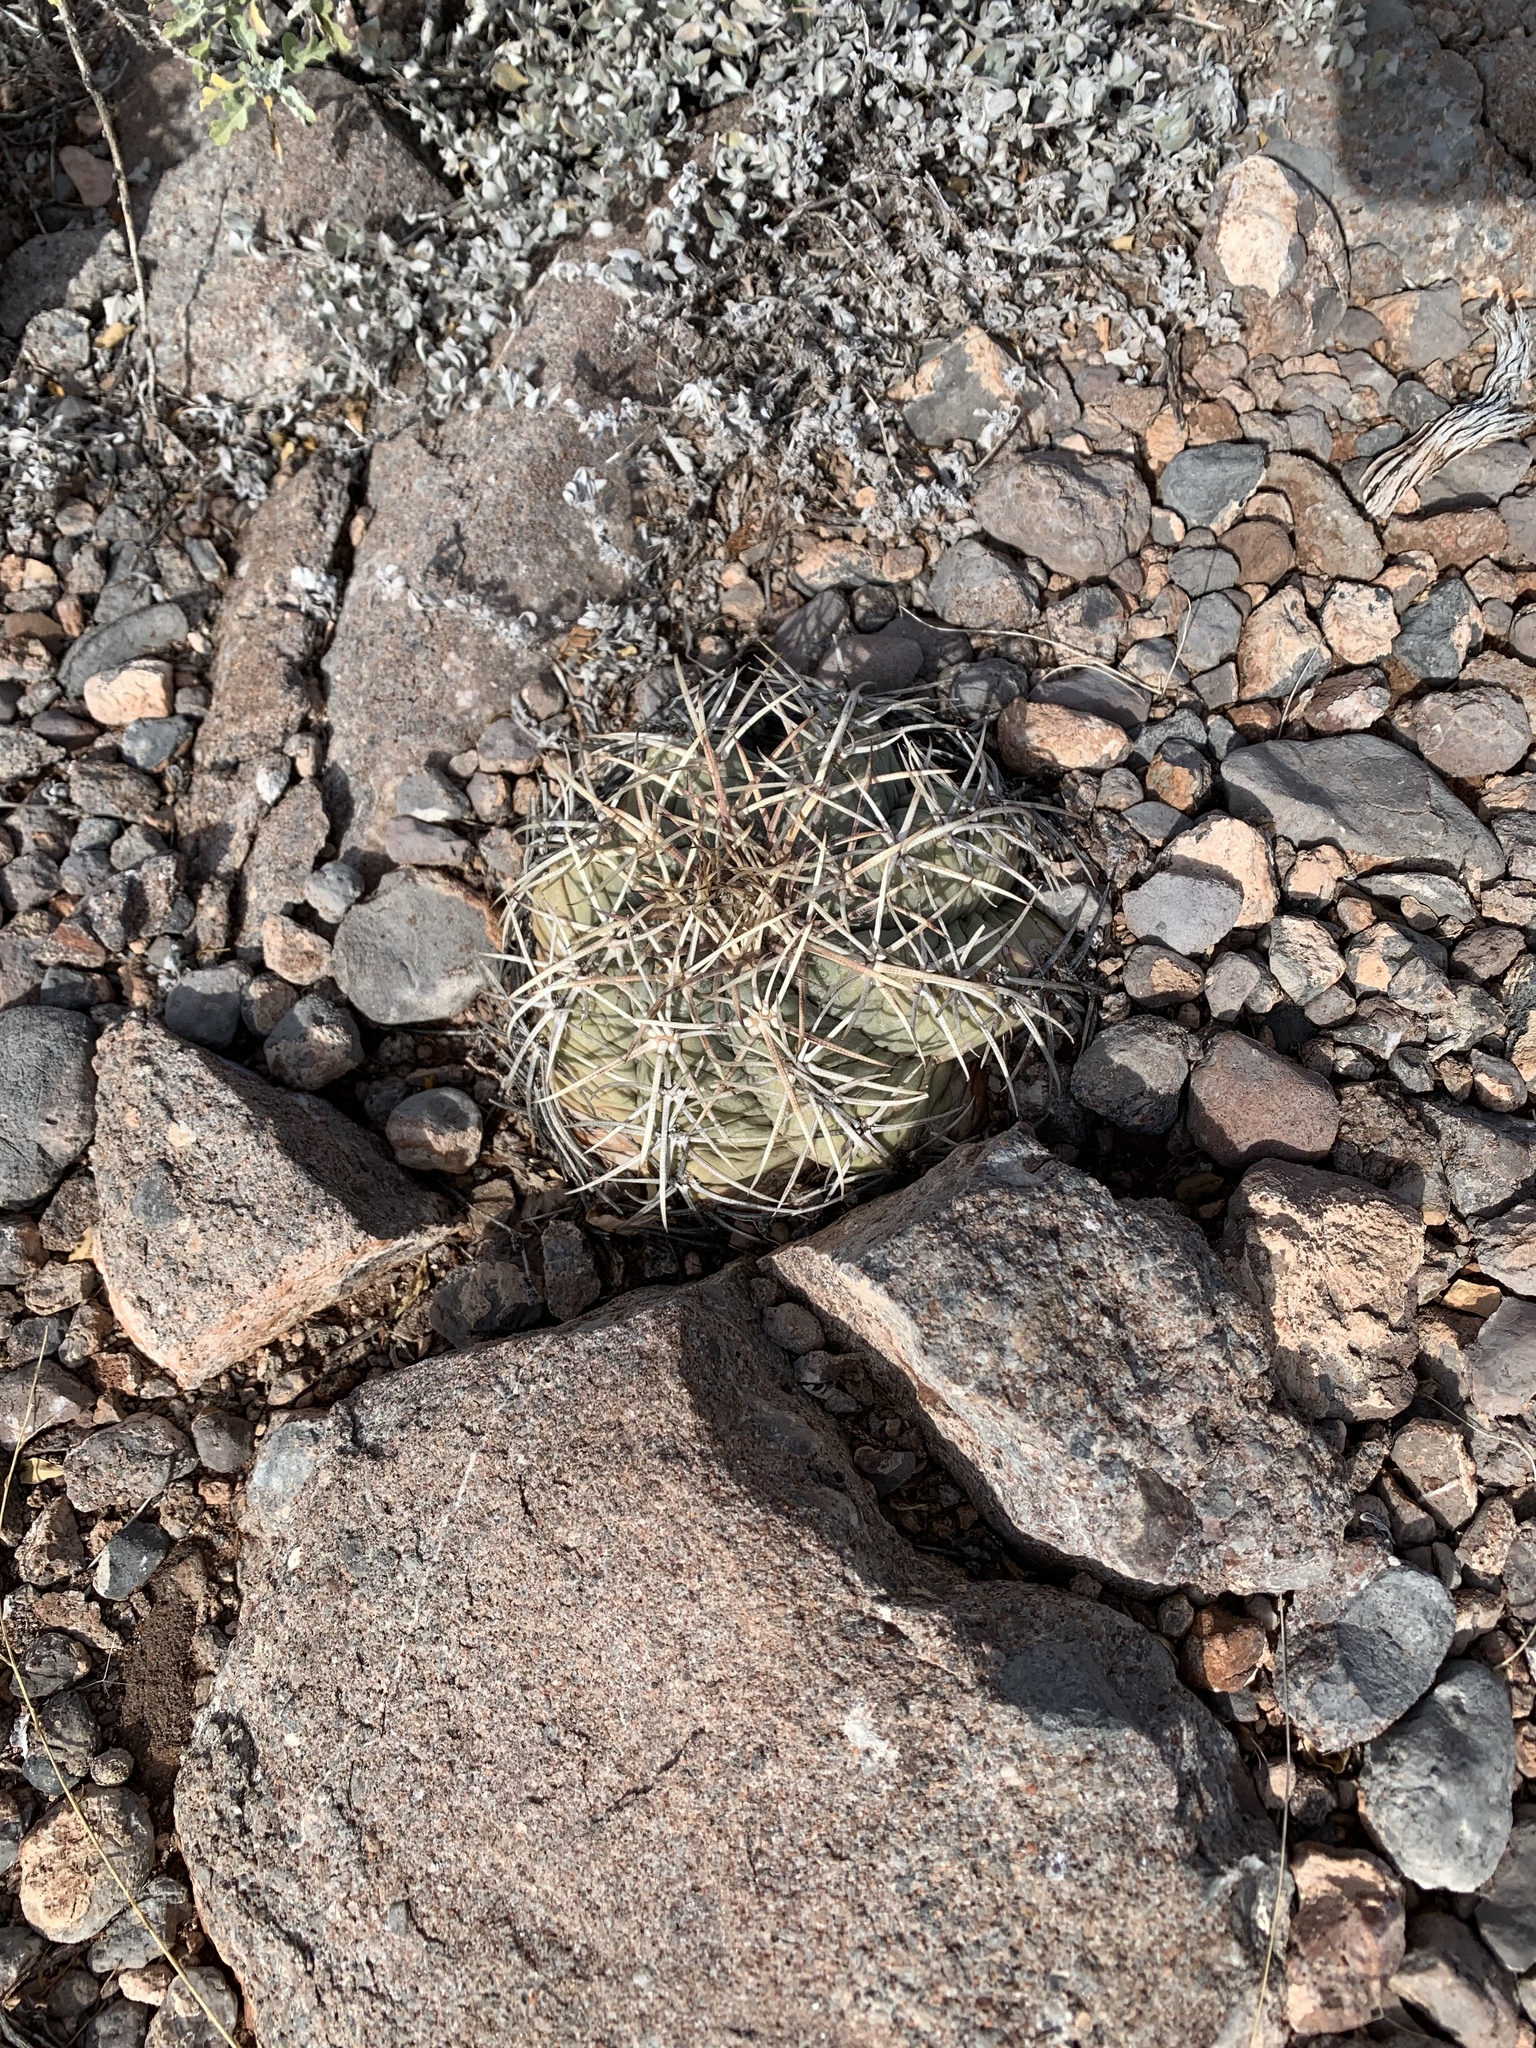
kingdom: Plantae
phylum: Tracheophyta
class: Magnoliopsida
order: Caryophyllales
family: Cactaceae
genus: Echinocactus
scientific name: Echinocactus horizonthalonius
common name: Devilshead
